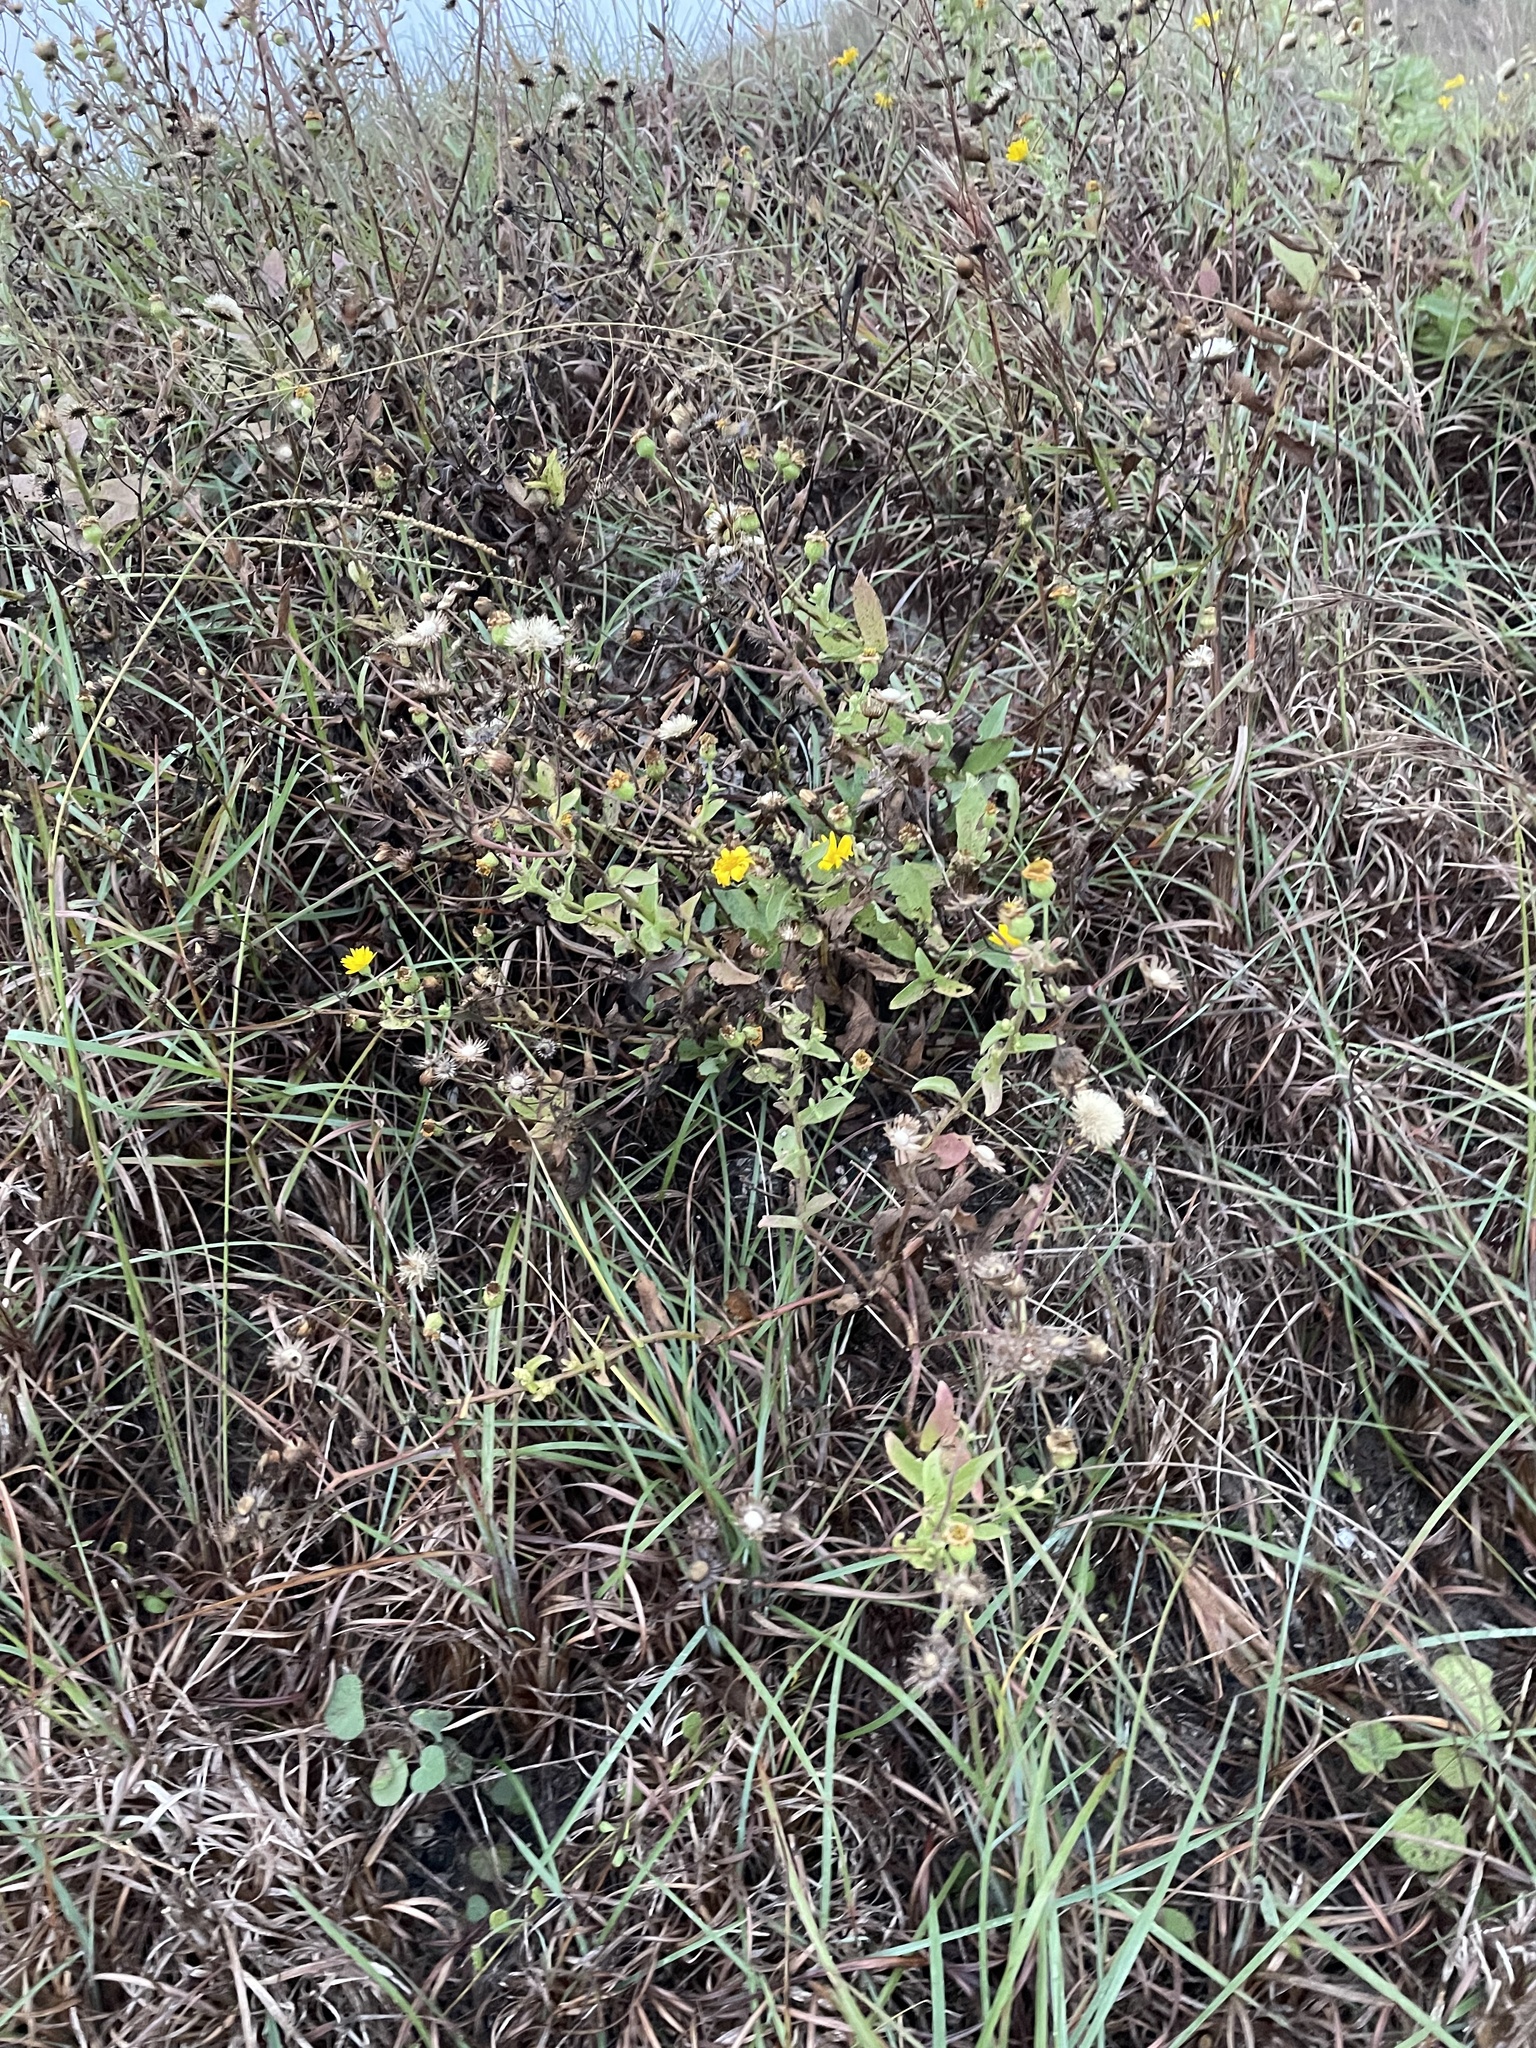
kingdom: Plantae
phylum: Tracheophyta
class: Magnoliopsida
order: Asterales
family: Asteraceae
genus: Heterotheca
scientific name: Heterotheca subaxillaris
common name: Camphorweed
